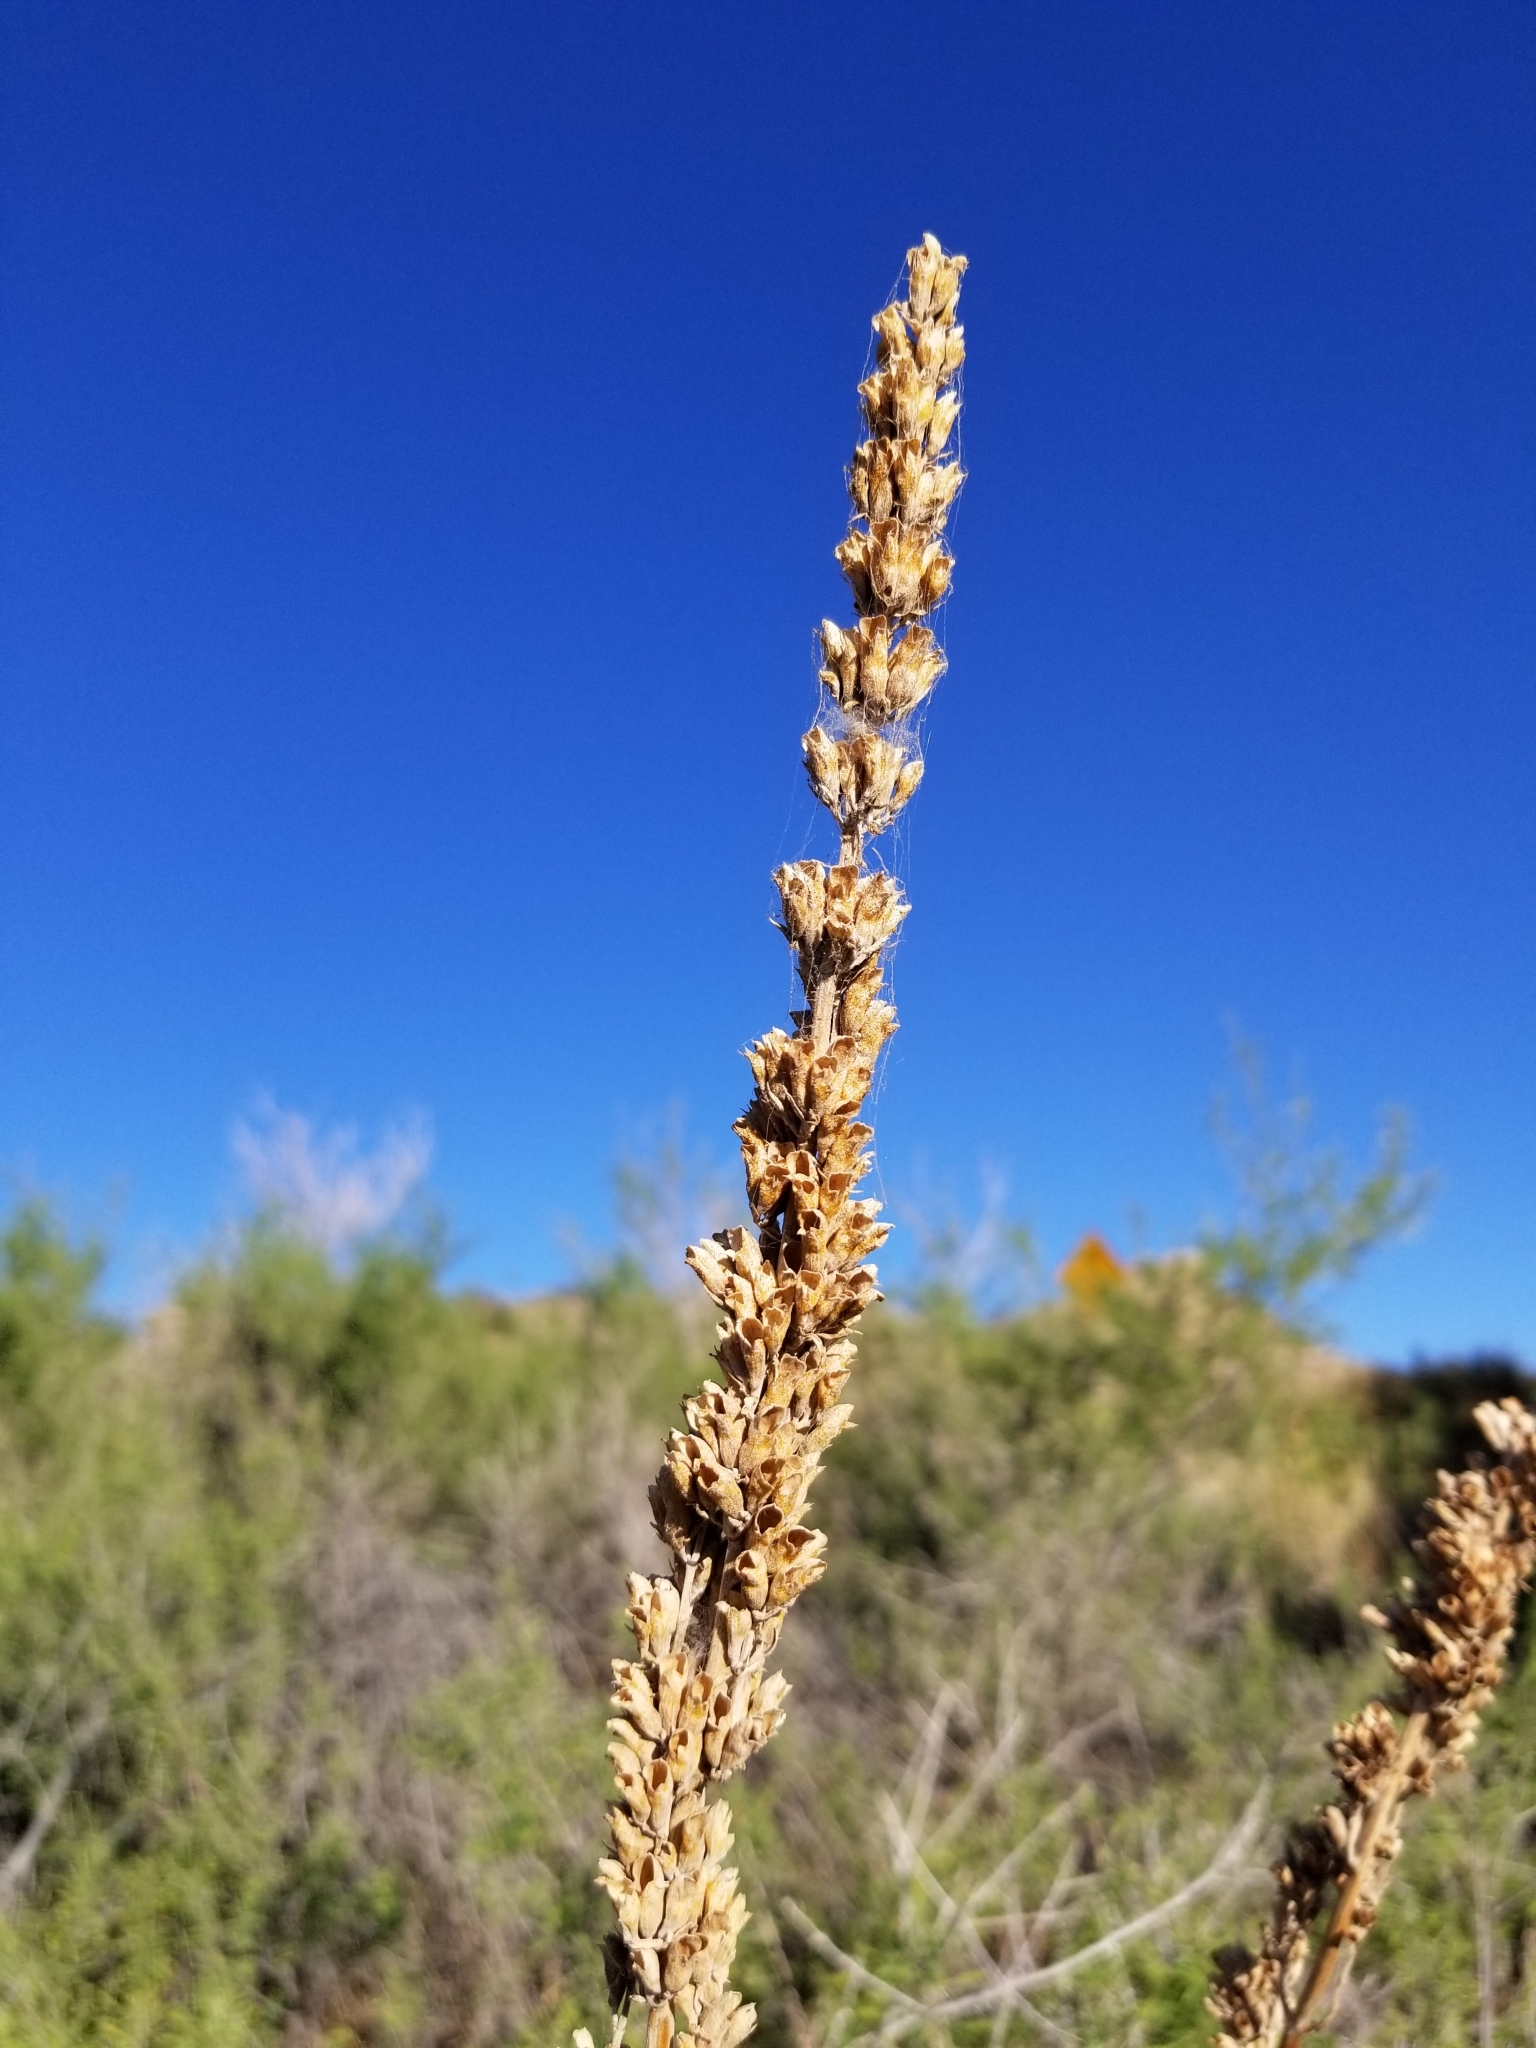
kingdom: Plantae
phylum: Tracheophyta
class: Magnoliopsida
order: Lamiales
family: Lamiaceae
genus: Salvia
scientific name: Salvia apiana
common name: White sage
